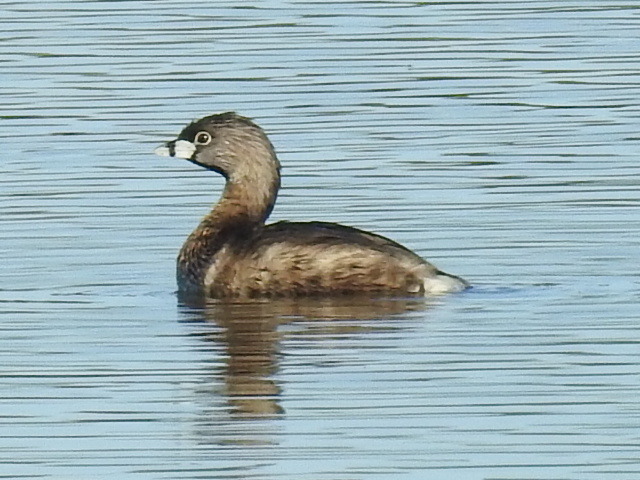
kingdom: Animalia
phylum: Chordata
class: Aves
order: Podicipediformes
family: Podicipedidae
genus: Podilymbus
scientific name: Podilymbus podiceps
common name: Pied-billed grebe
